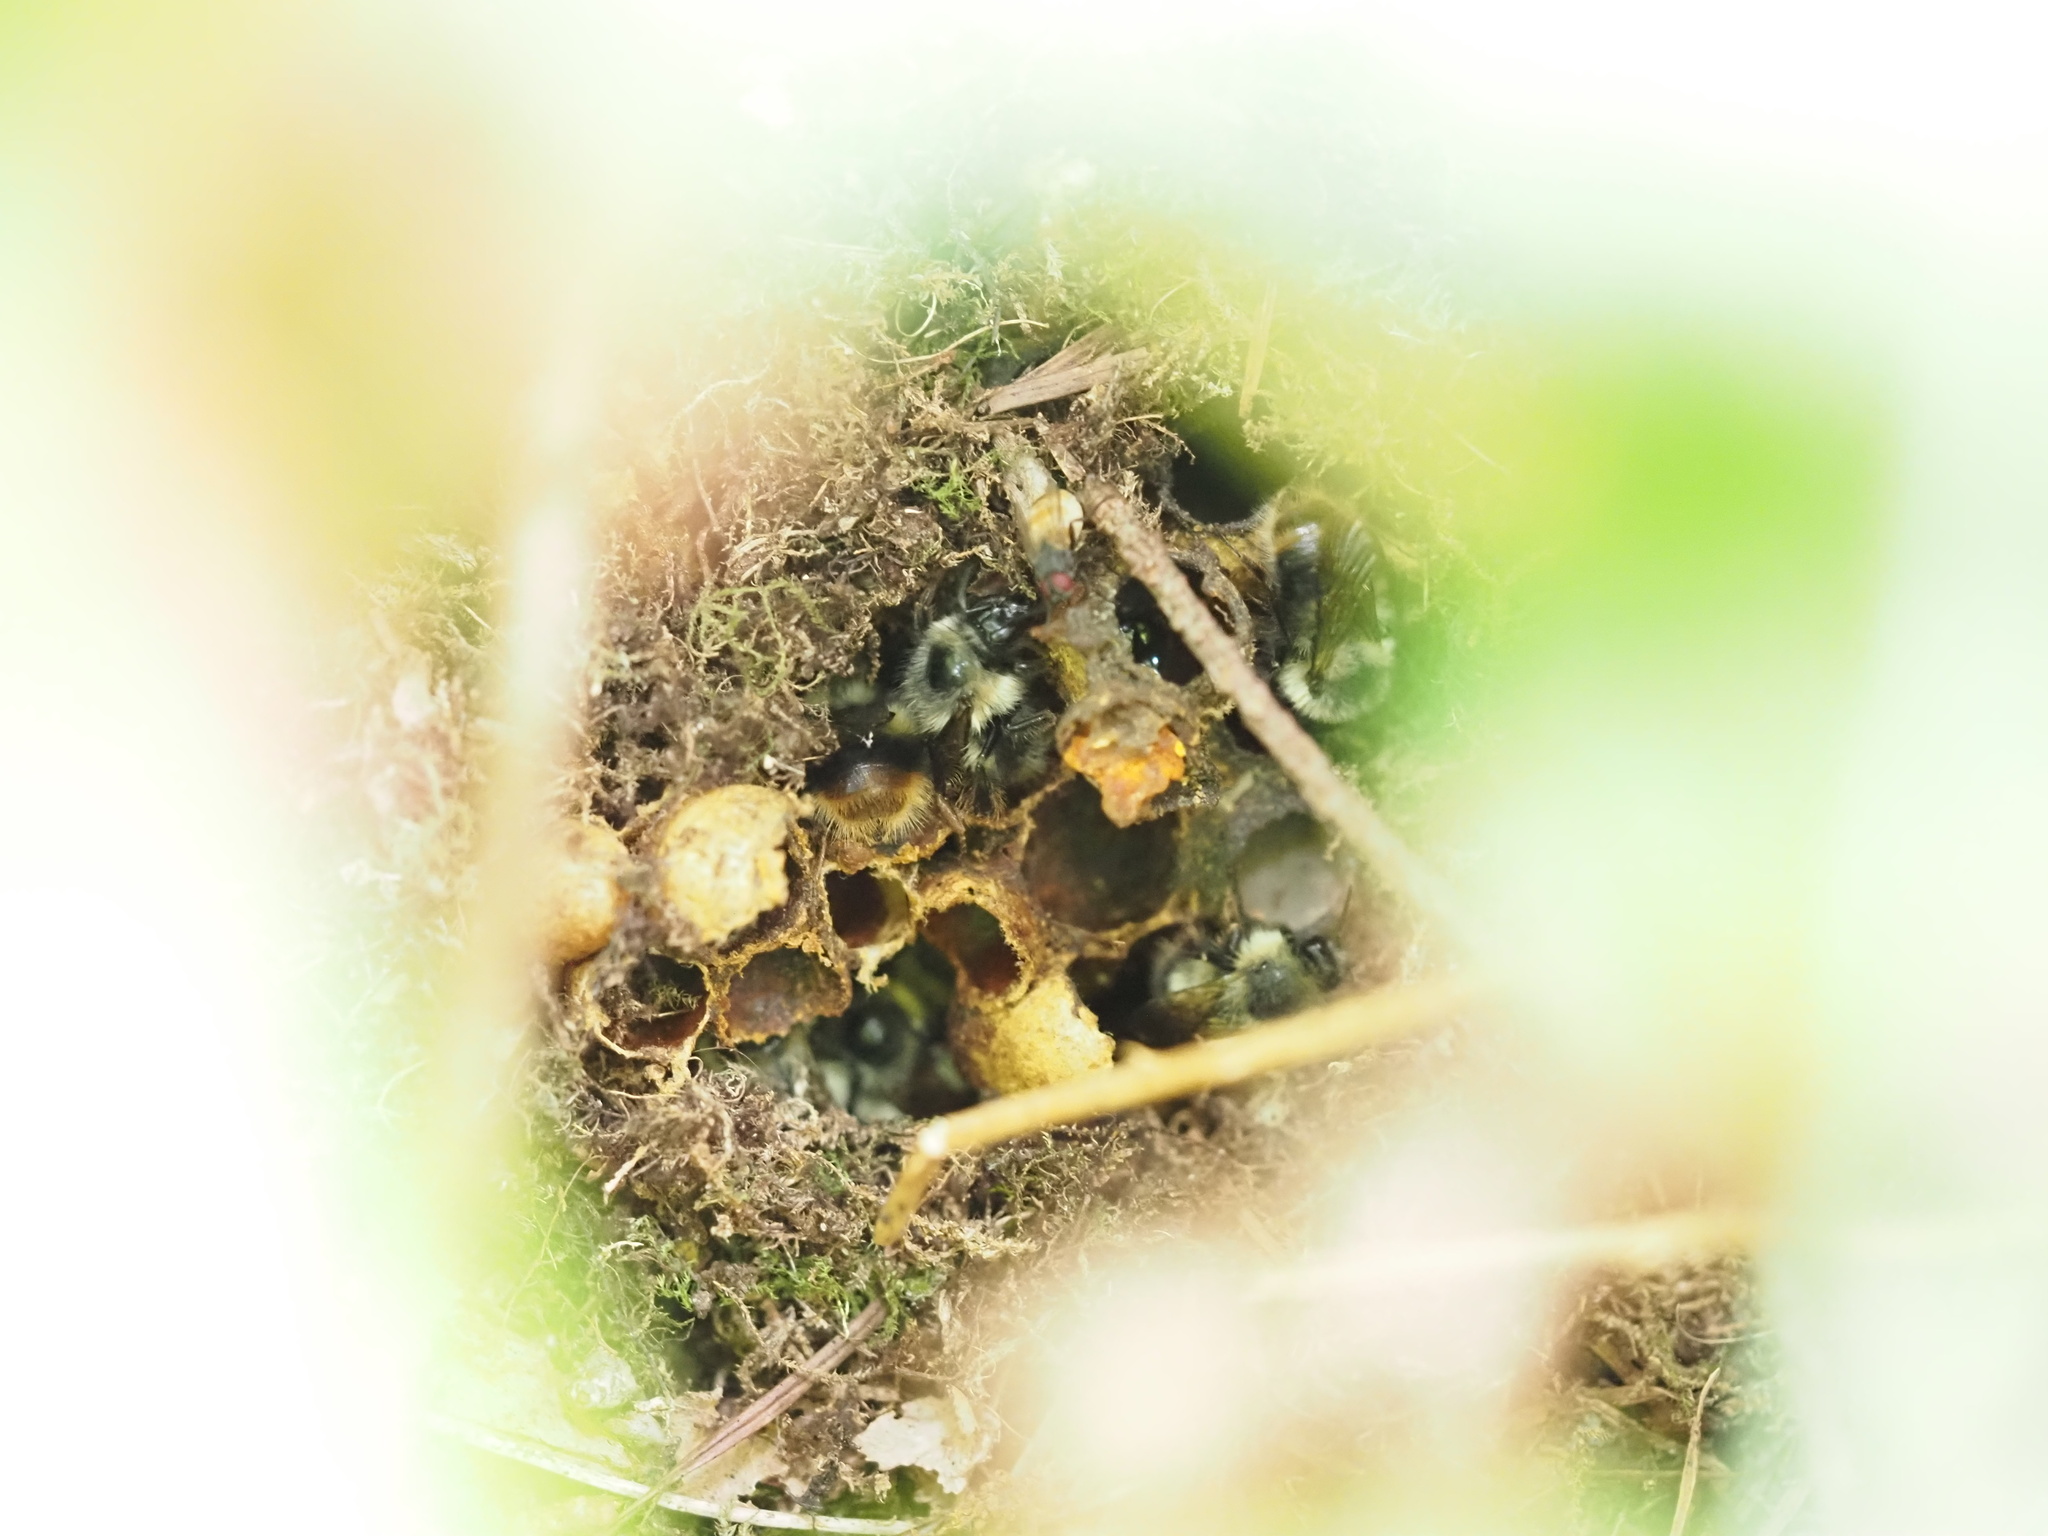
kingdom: Animalia
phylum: Arthropoda
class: Insecta
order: Hymenoptera
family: Apidae
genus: Bombus
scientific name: Bombus mixtus
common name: Fuzzy-horned bumble bee
